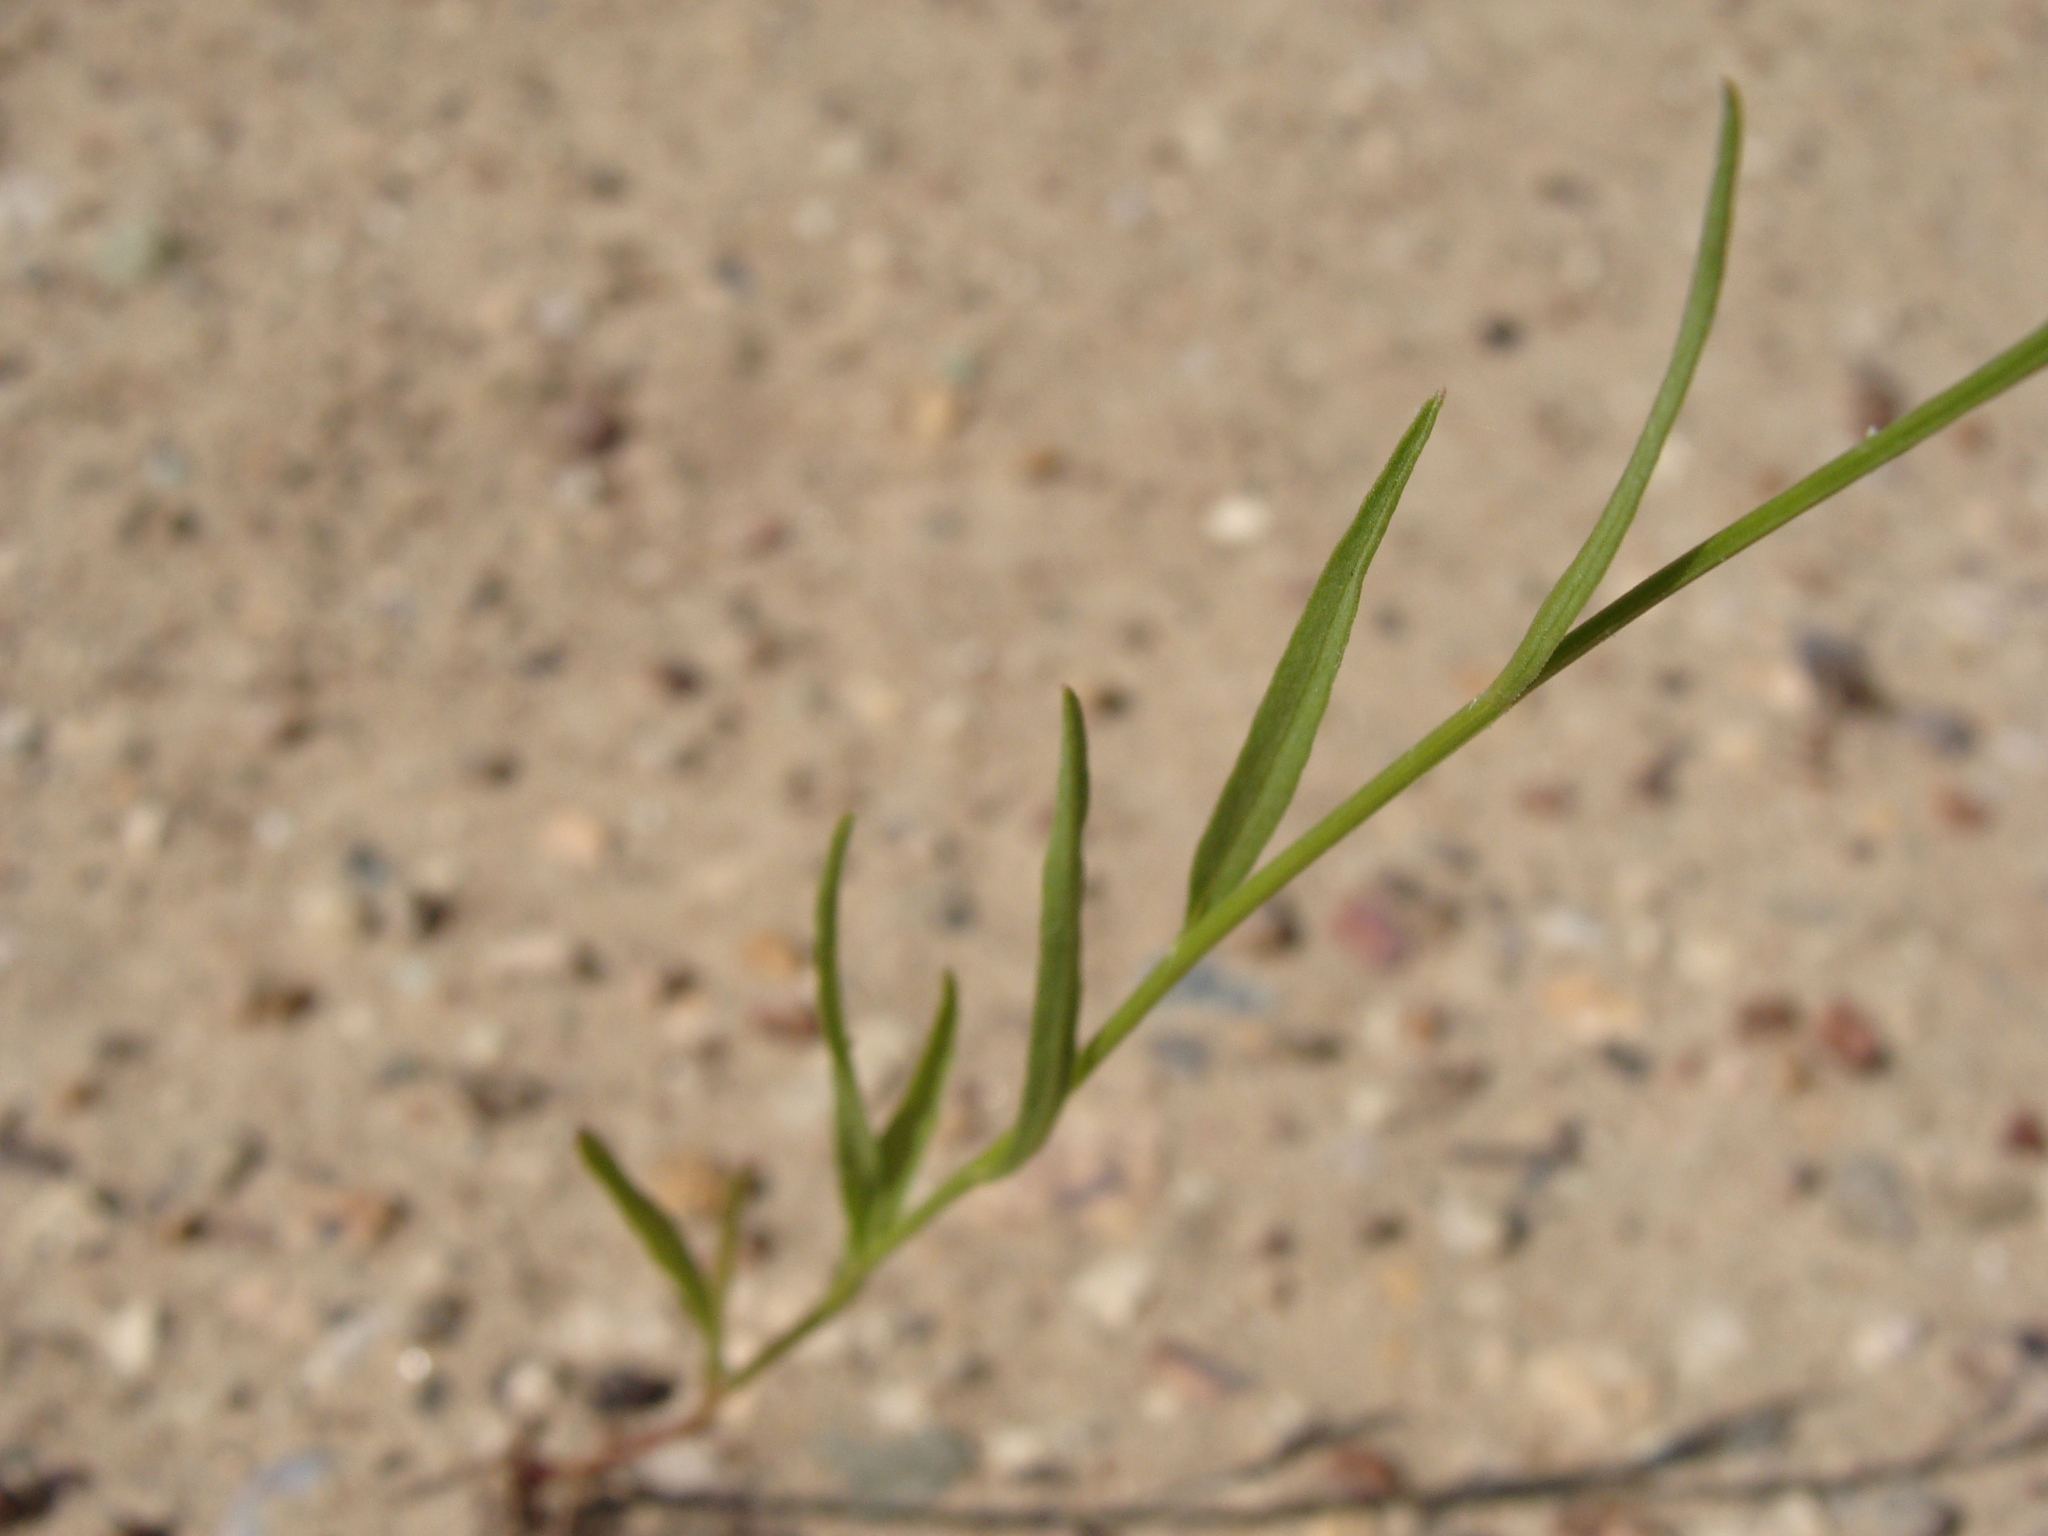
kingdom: Plantae
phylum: Tracheophyta
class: Magnoliopsida
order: Asterales
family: Asteraceae
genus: Gutierrezia
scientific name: Gutierrezia wrightii
